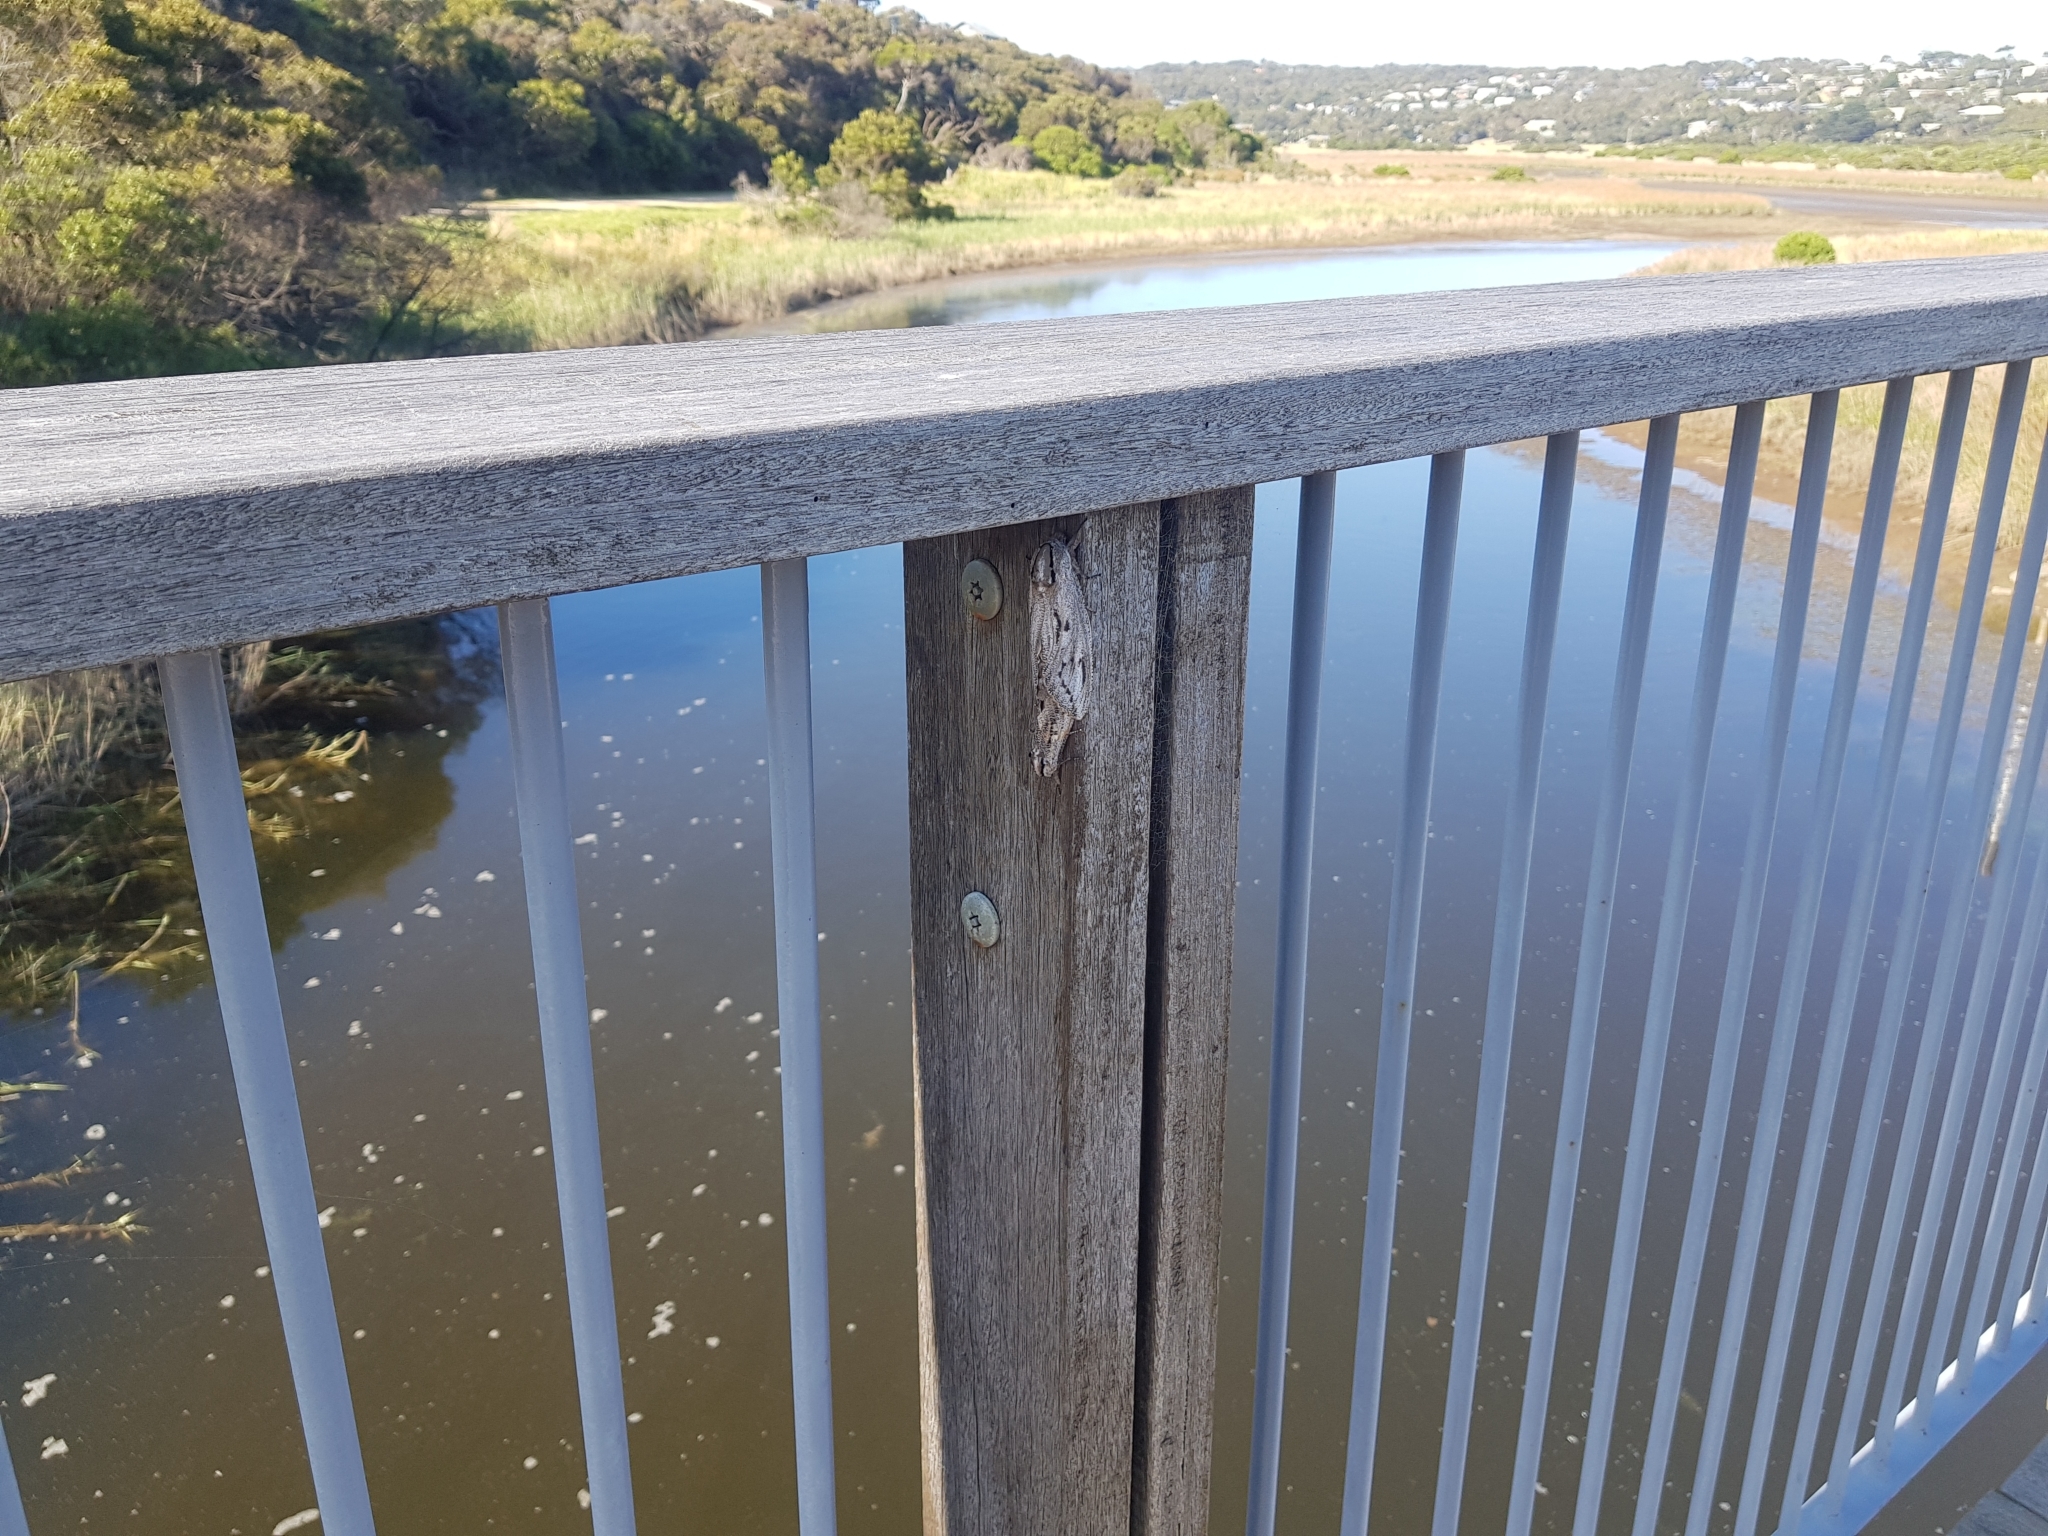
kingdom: Animalia
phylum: Arthropoda
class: Insecta
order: Lepidoptera
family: Cossidae
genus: Endoxyla
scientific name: Endoxyla liturata
